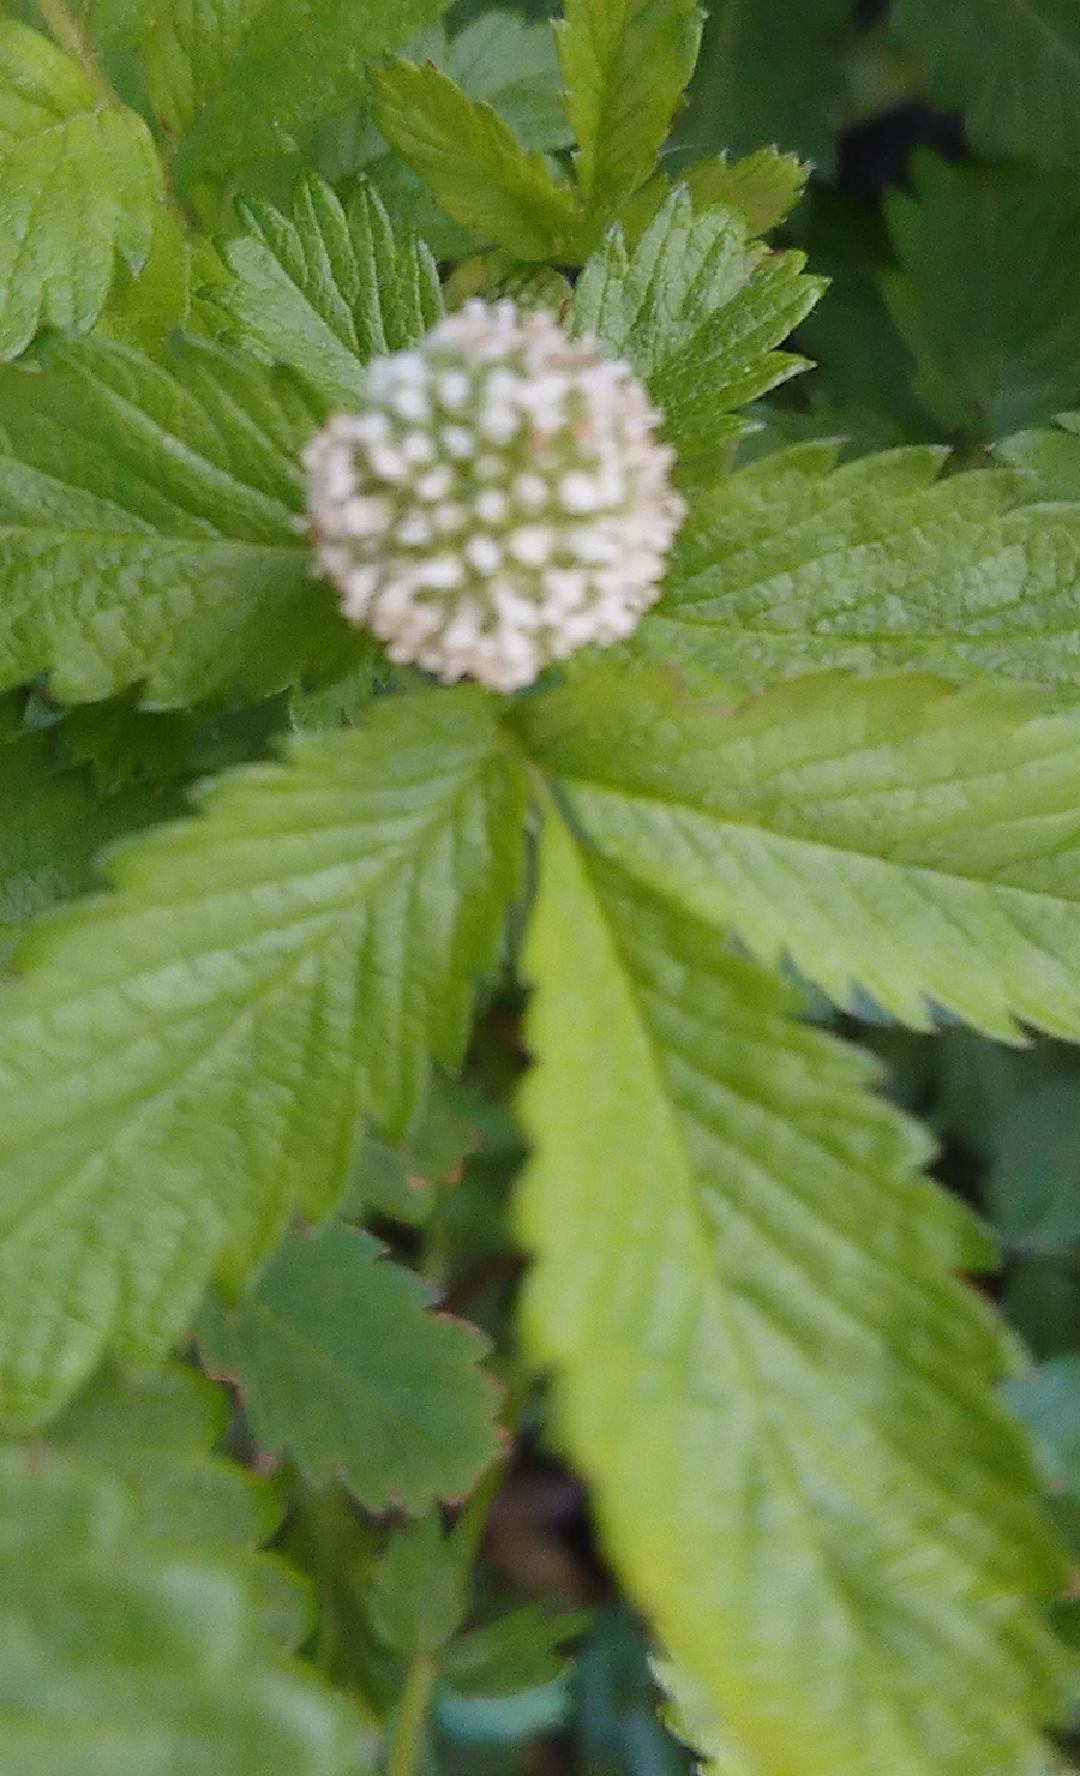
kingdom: Plantae
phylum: Tracheophyta
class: Magnoliopsida
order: Rosales
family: Rosaceae
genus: Acaena
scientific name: Acaena ovalifolia
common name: Two-spined acaena
